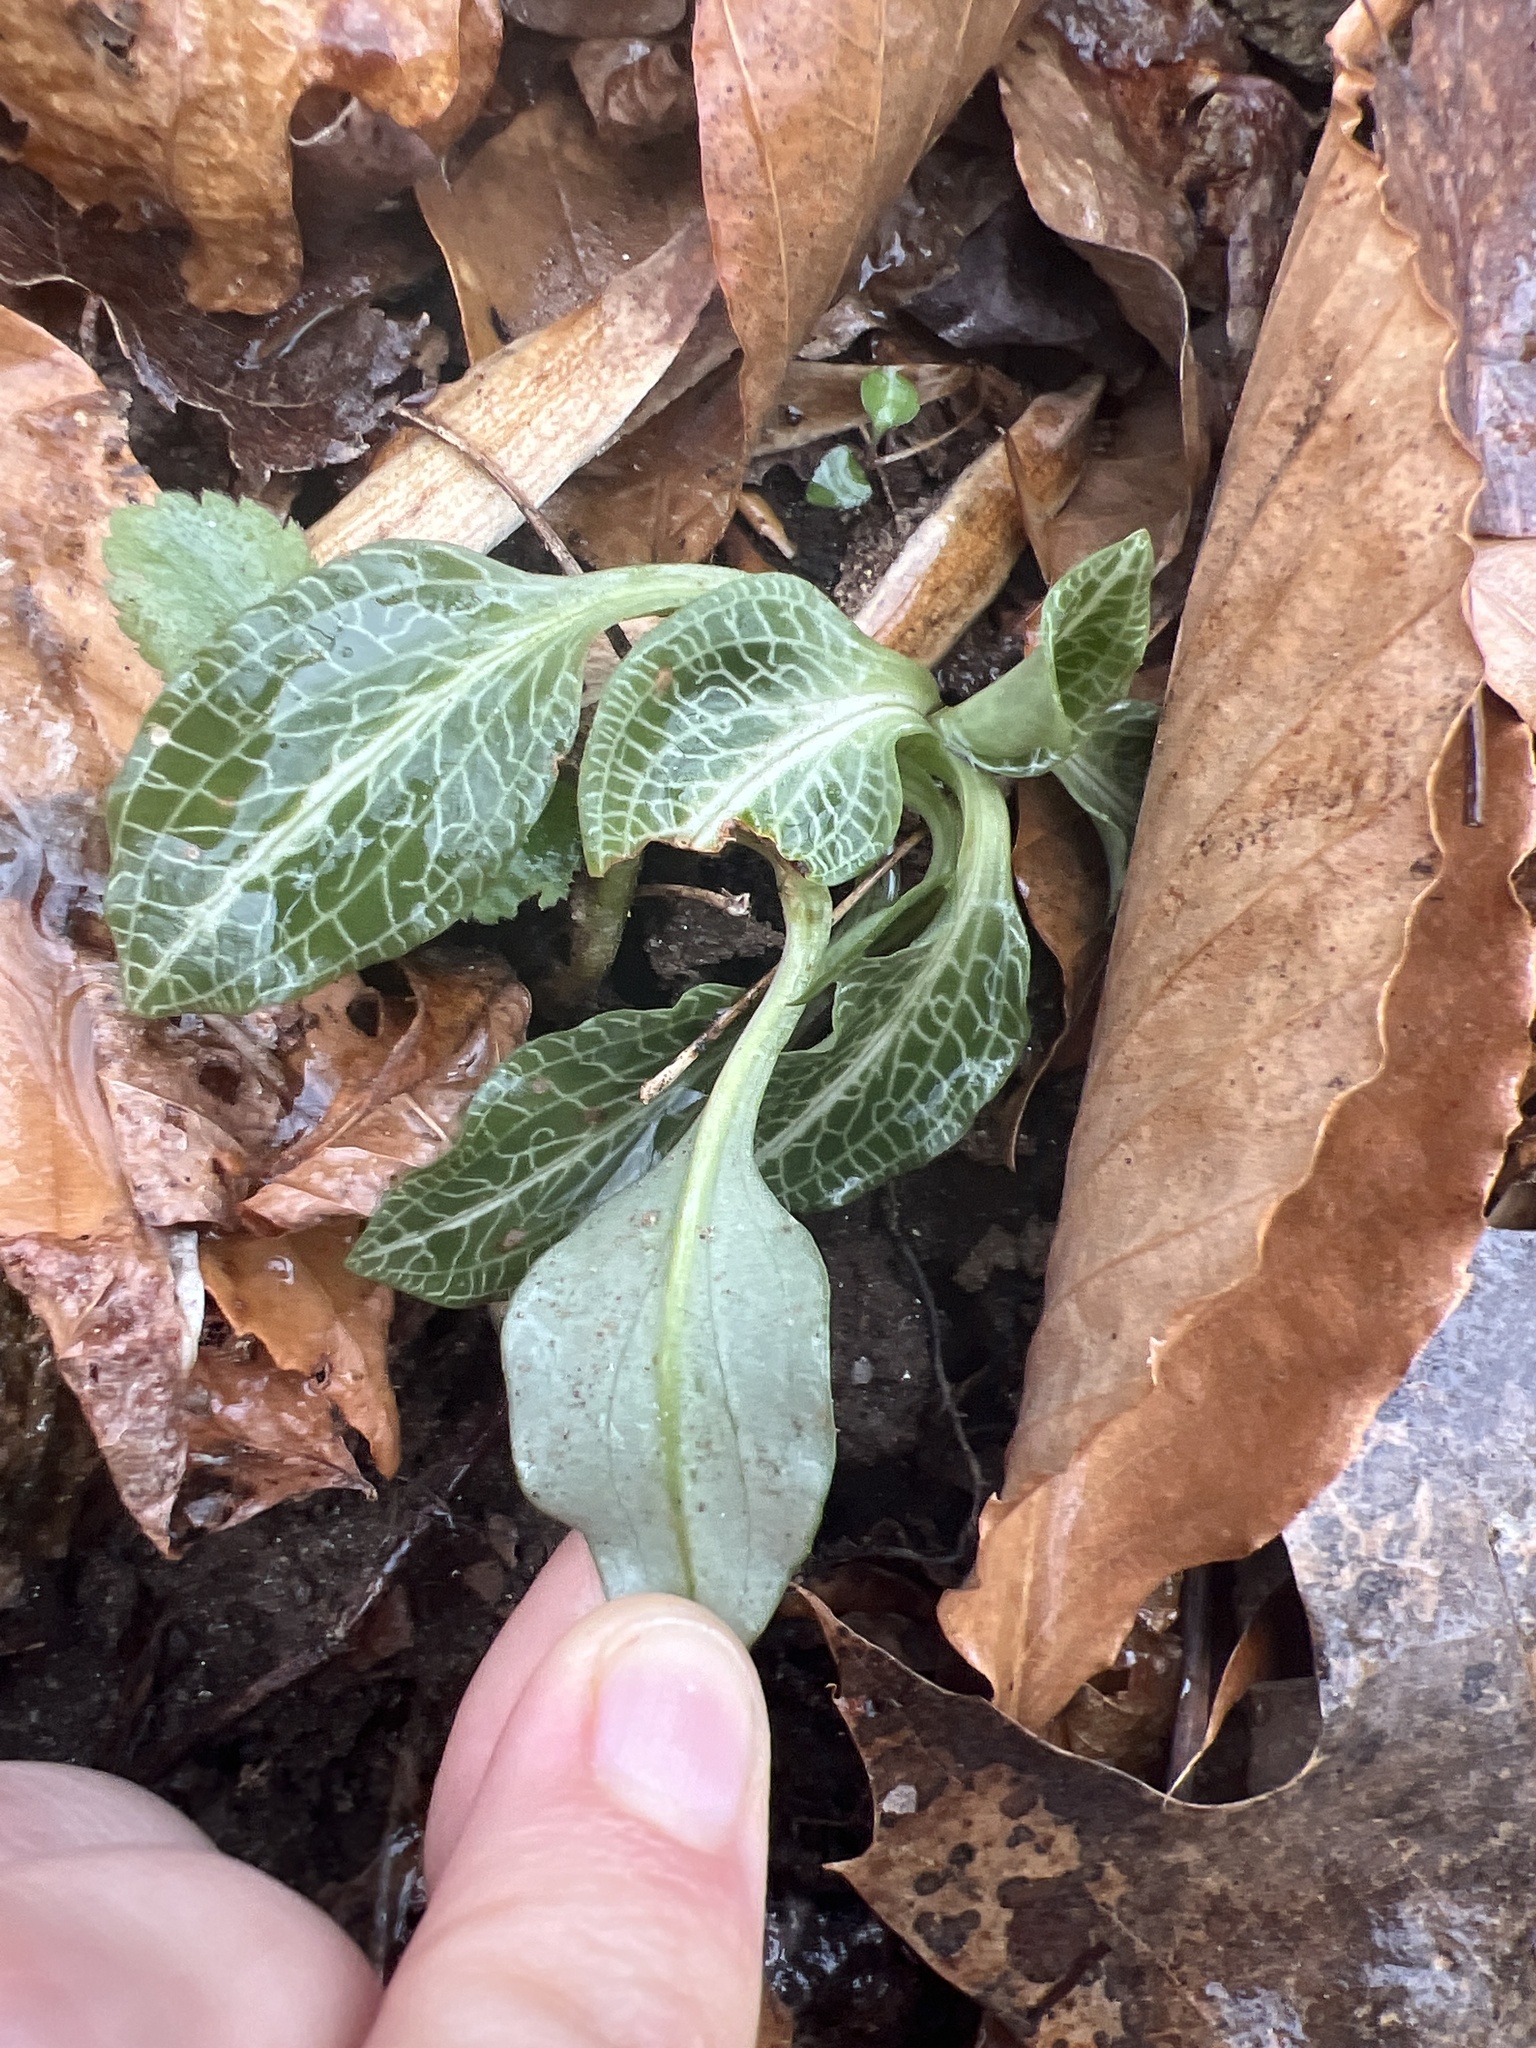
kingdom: Plantae
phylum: Tracheophyta
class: Liliopsida
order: Asparagales
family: Orchidaceae
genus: Goodyera
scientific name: Goodyera pubescens
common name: Downy rattlesnake-plantain
